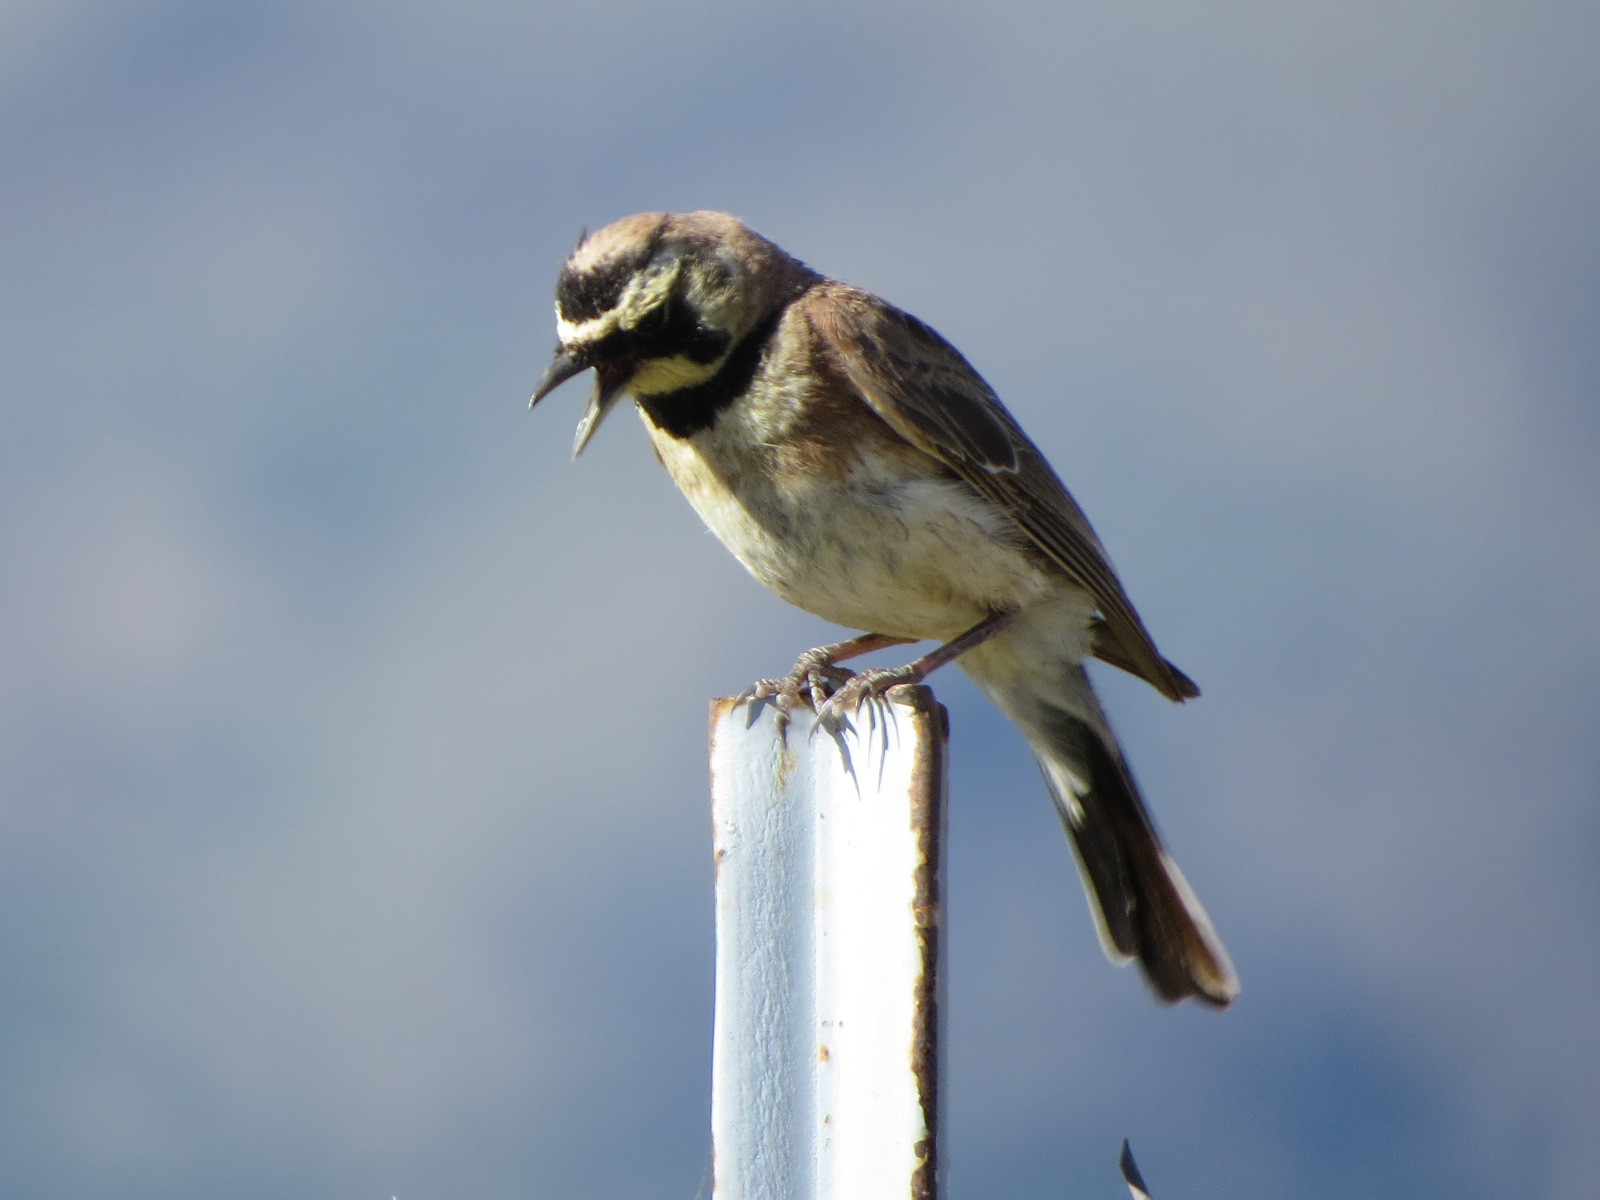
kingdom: Animalia
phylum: Chordata
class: Aves
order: Passeriformes
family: Alaudidae
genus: Eremophila
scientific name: Eremophila alpestris
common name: Horned lark
